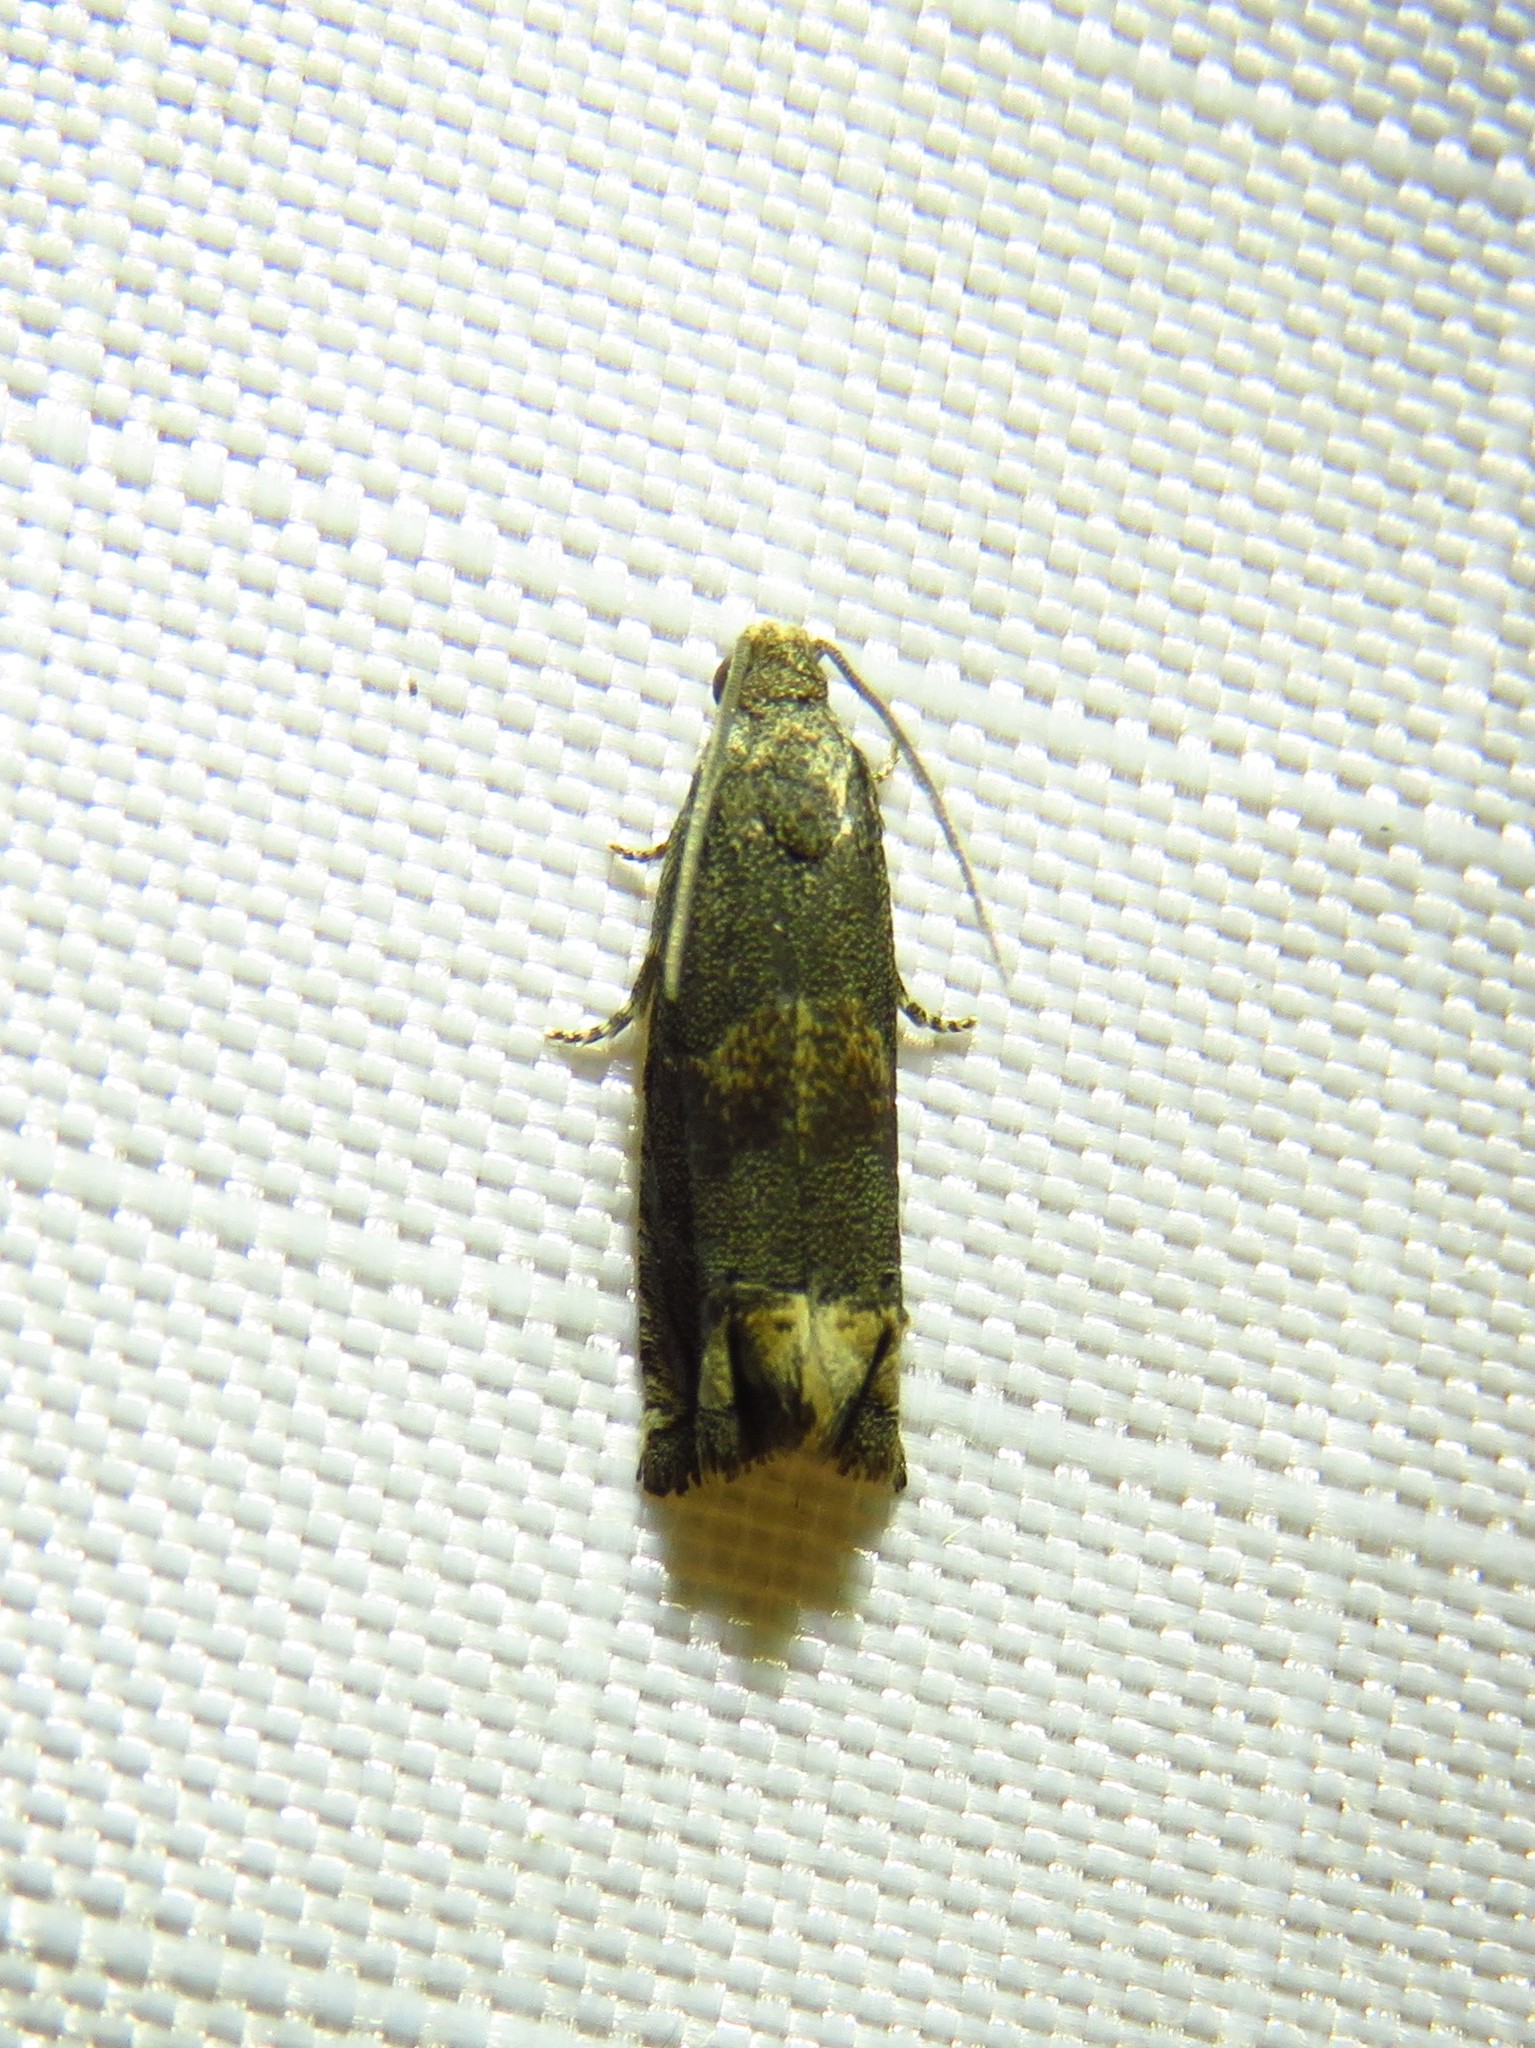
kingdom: Animalia
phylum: Arthropoda
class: Insecta
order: Lepidoptera
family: Tortricidae
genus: Epiblema
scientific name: Epiblema strenuana
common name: Ragweed borer moth
